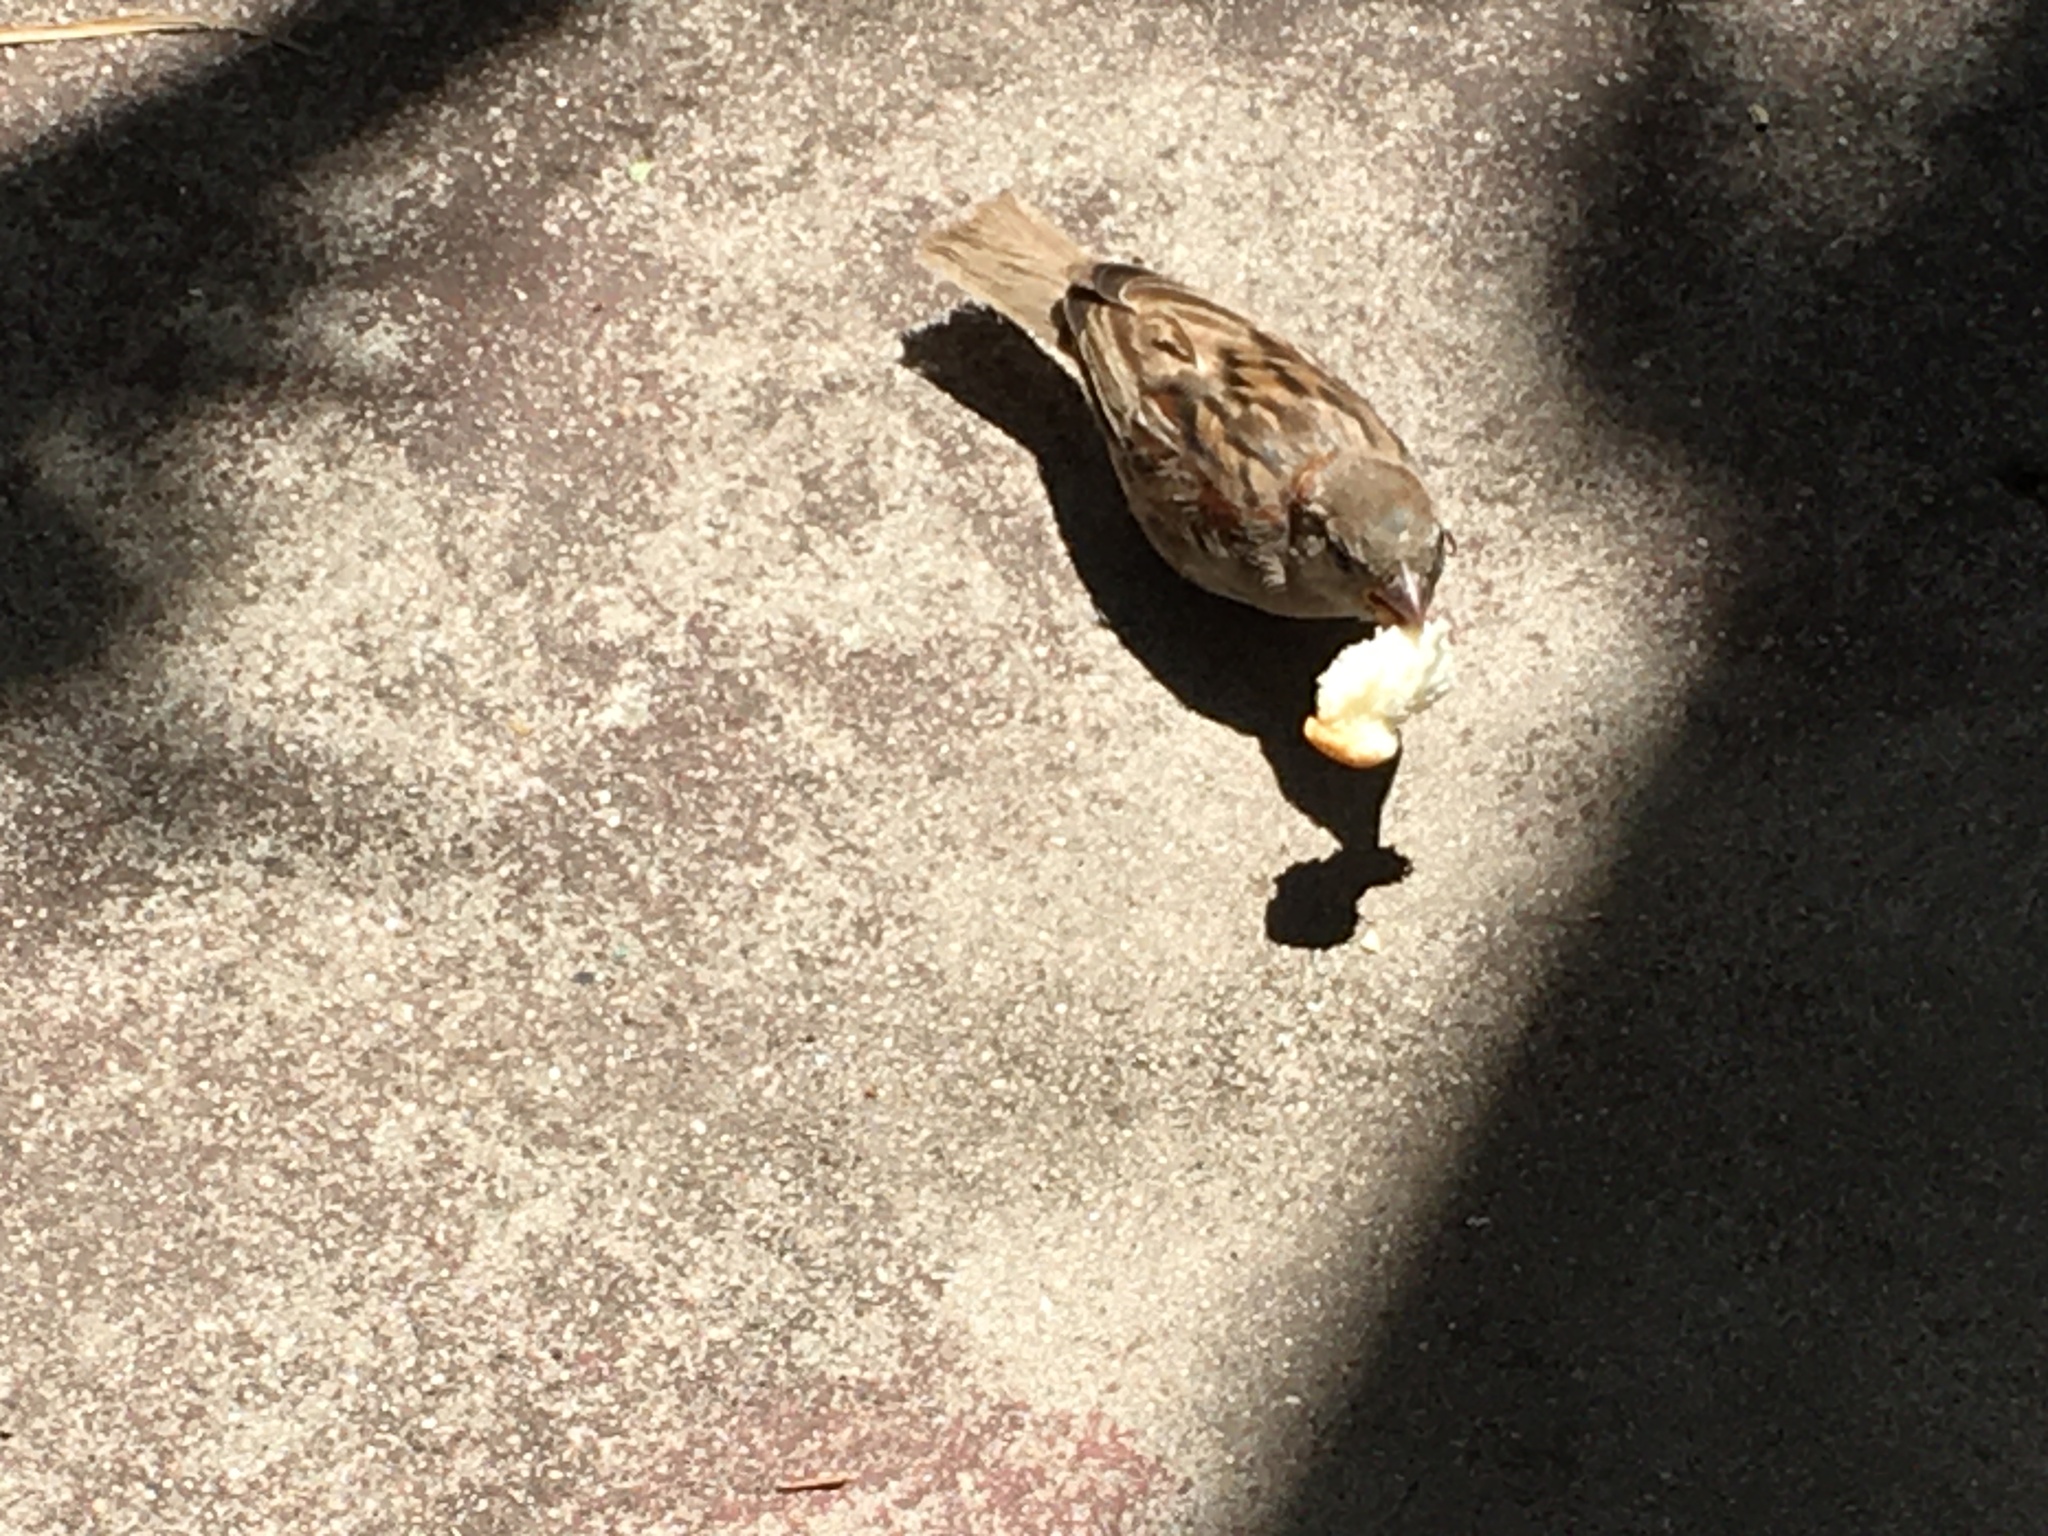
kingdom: Animalia
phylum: Chordata
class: Aves
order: Passeriformes
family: Passeridae
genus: Passer
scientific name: Passer domesticus
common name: House sparrow
